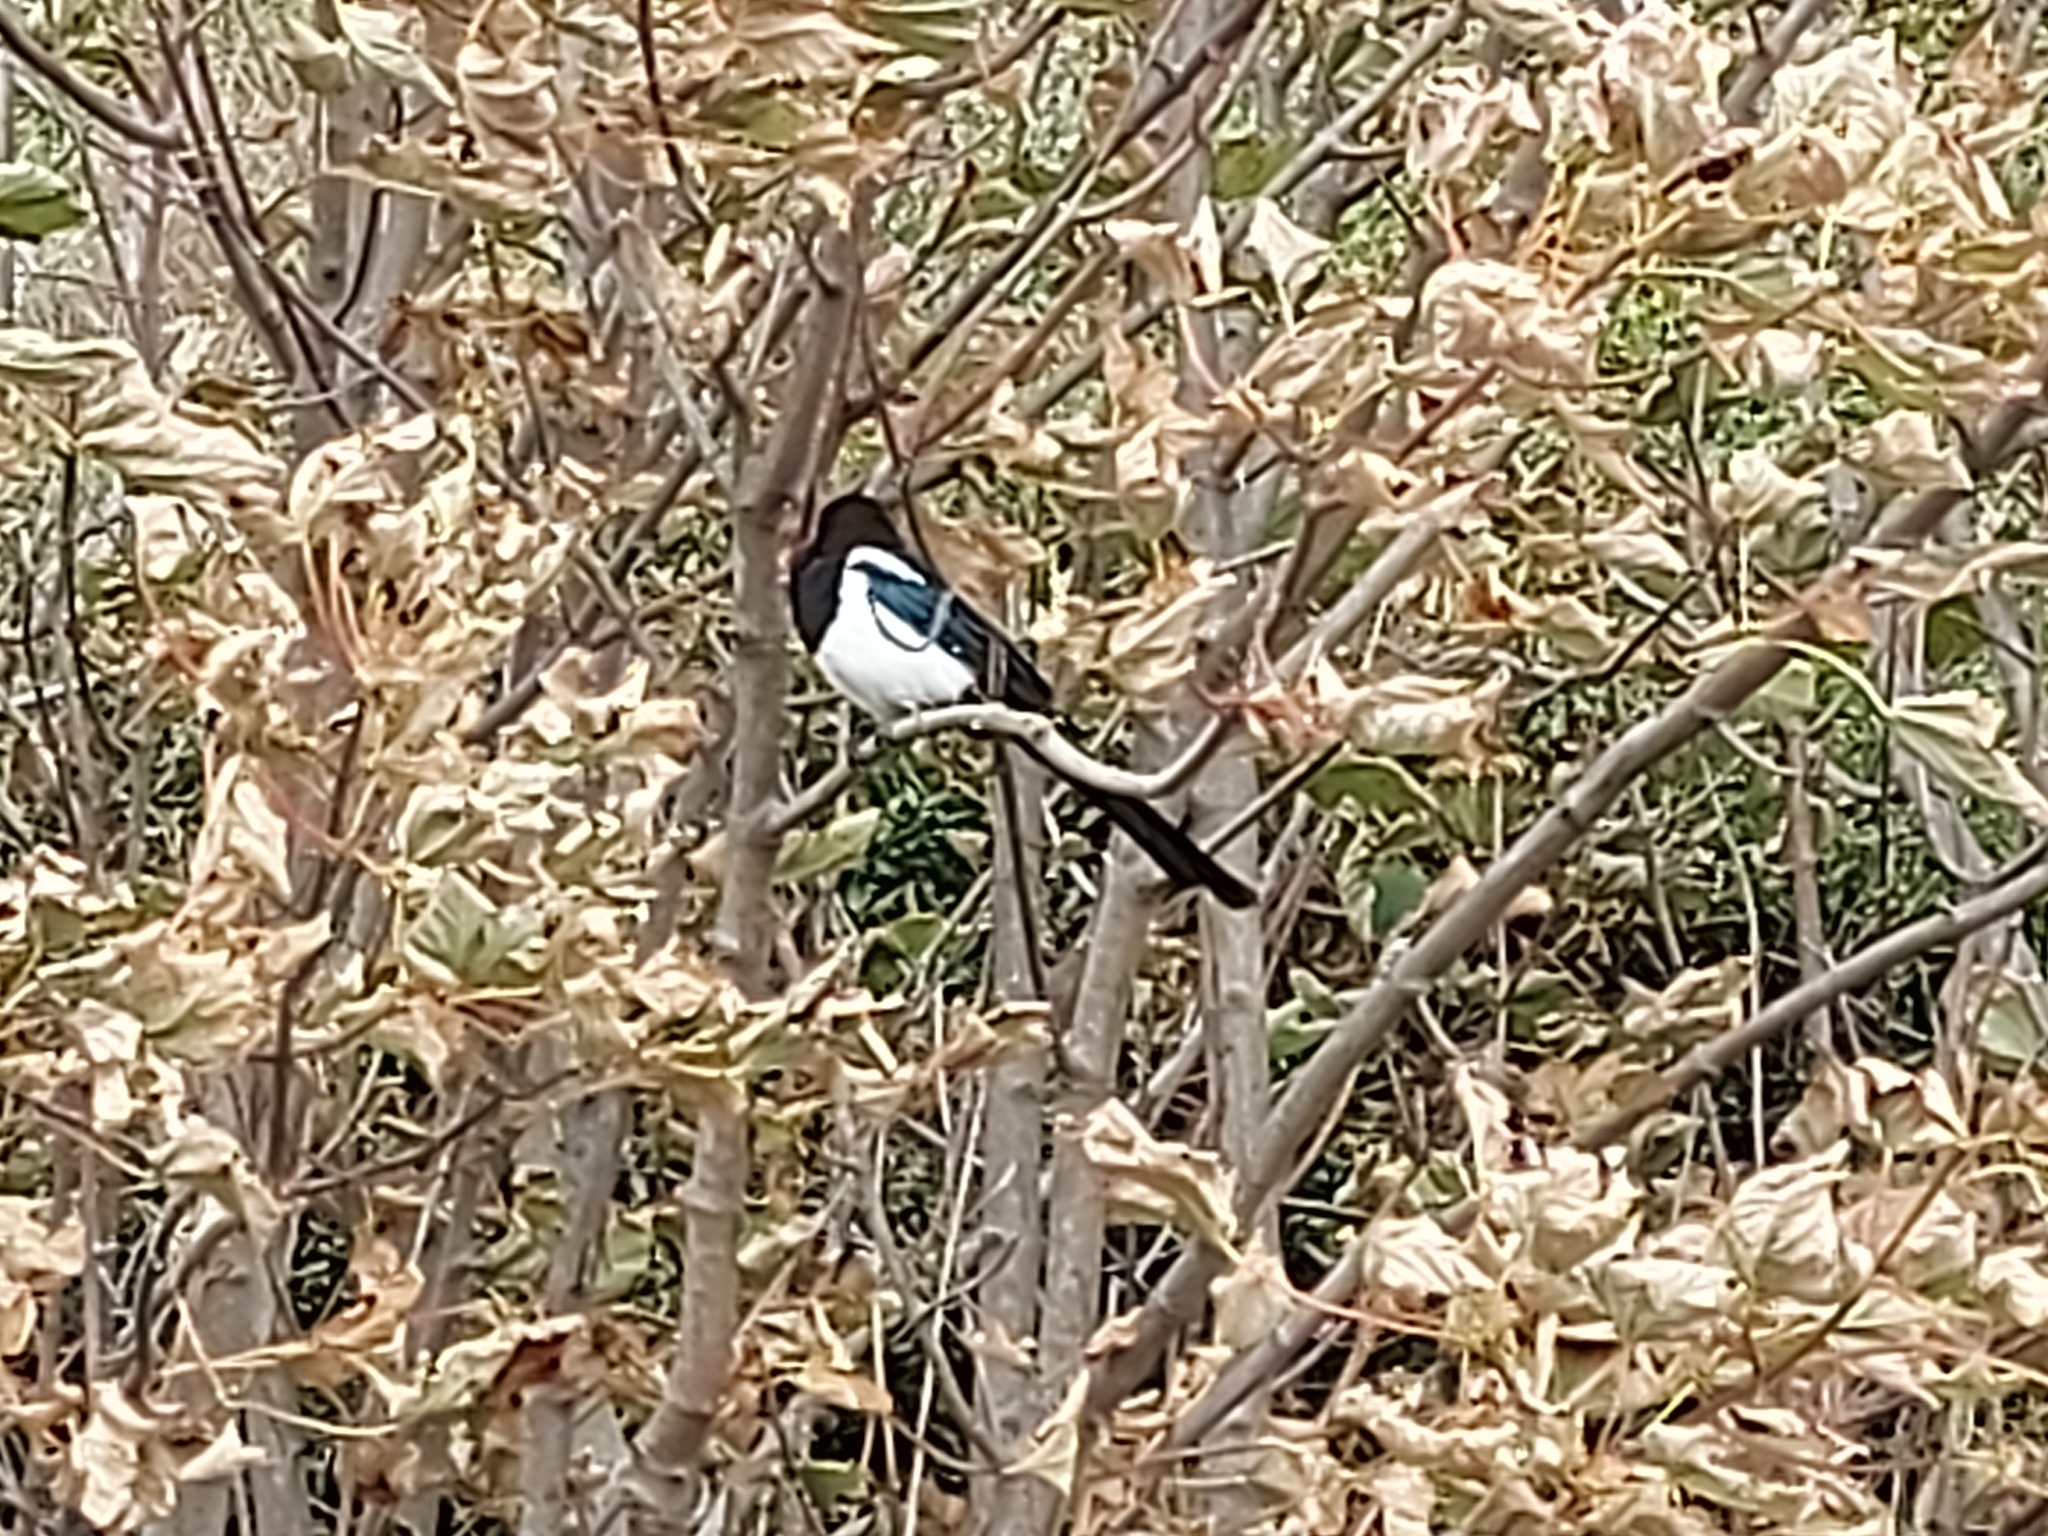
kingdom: Animalia
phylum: Chordata
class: Aves
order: Passeriformes
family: Corvidae
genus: Pica
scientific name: Pica pica
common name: Eurasian magpie
